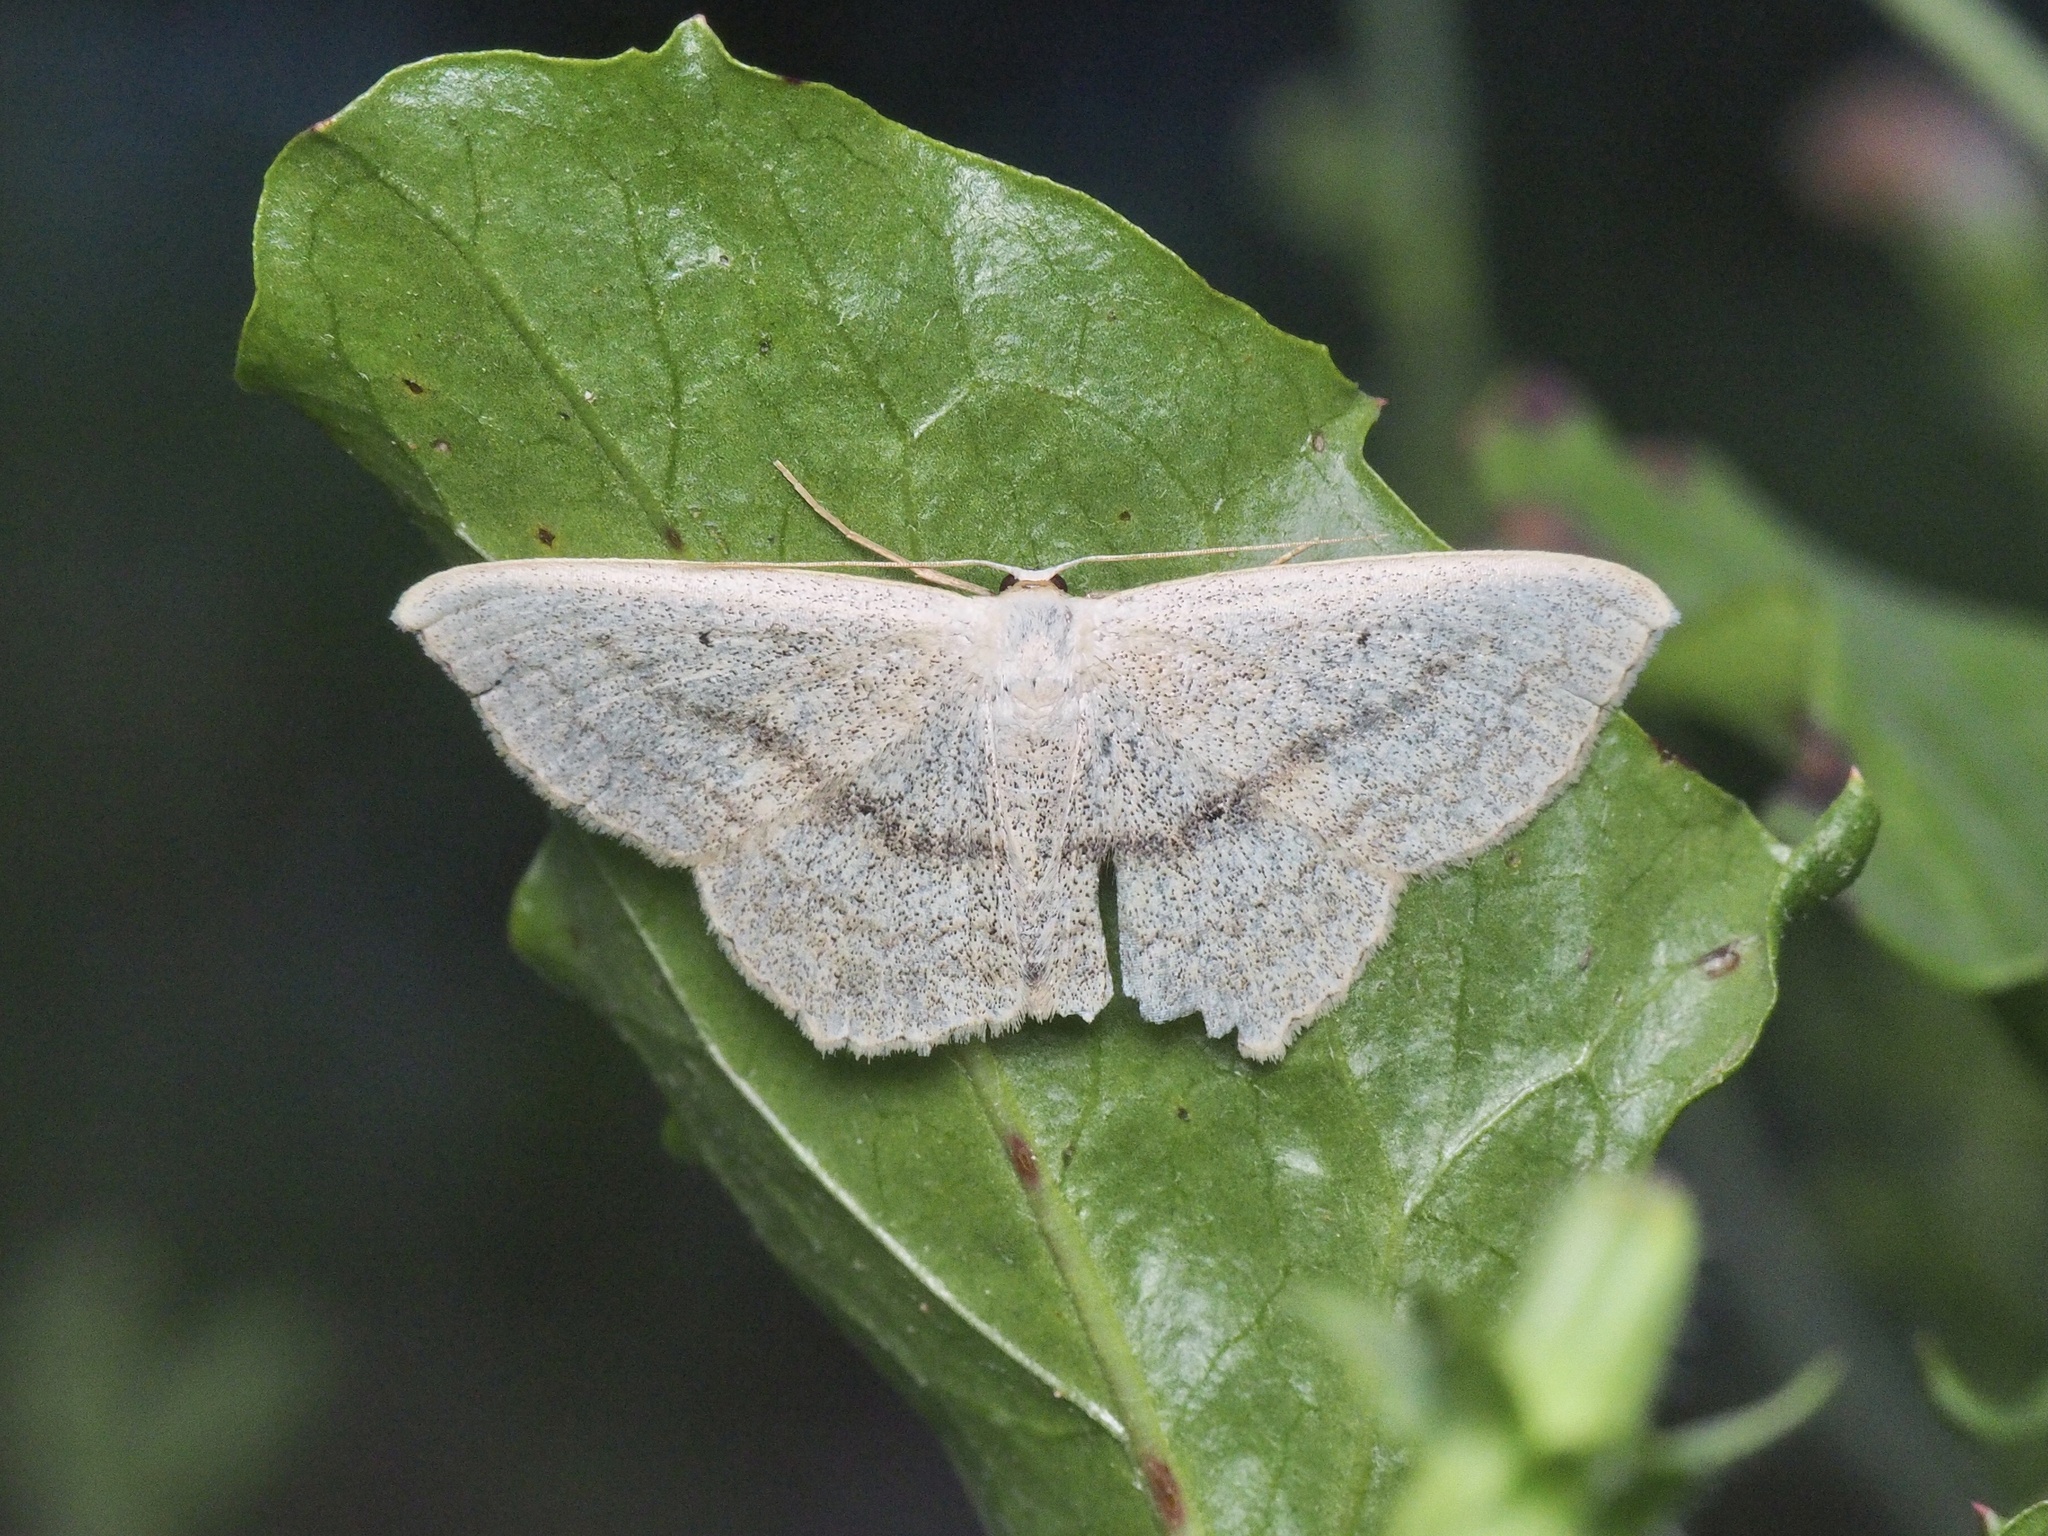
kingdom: Animalia
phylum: Arthropoda
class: Insecta
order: Lepidoptera
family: Geometridae
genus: Scopula
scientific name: Scopula nigropunctata
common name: Sub-angled wave
